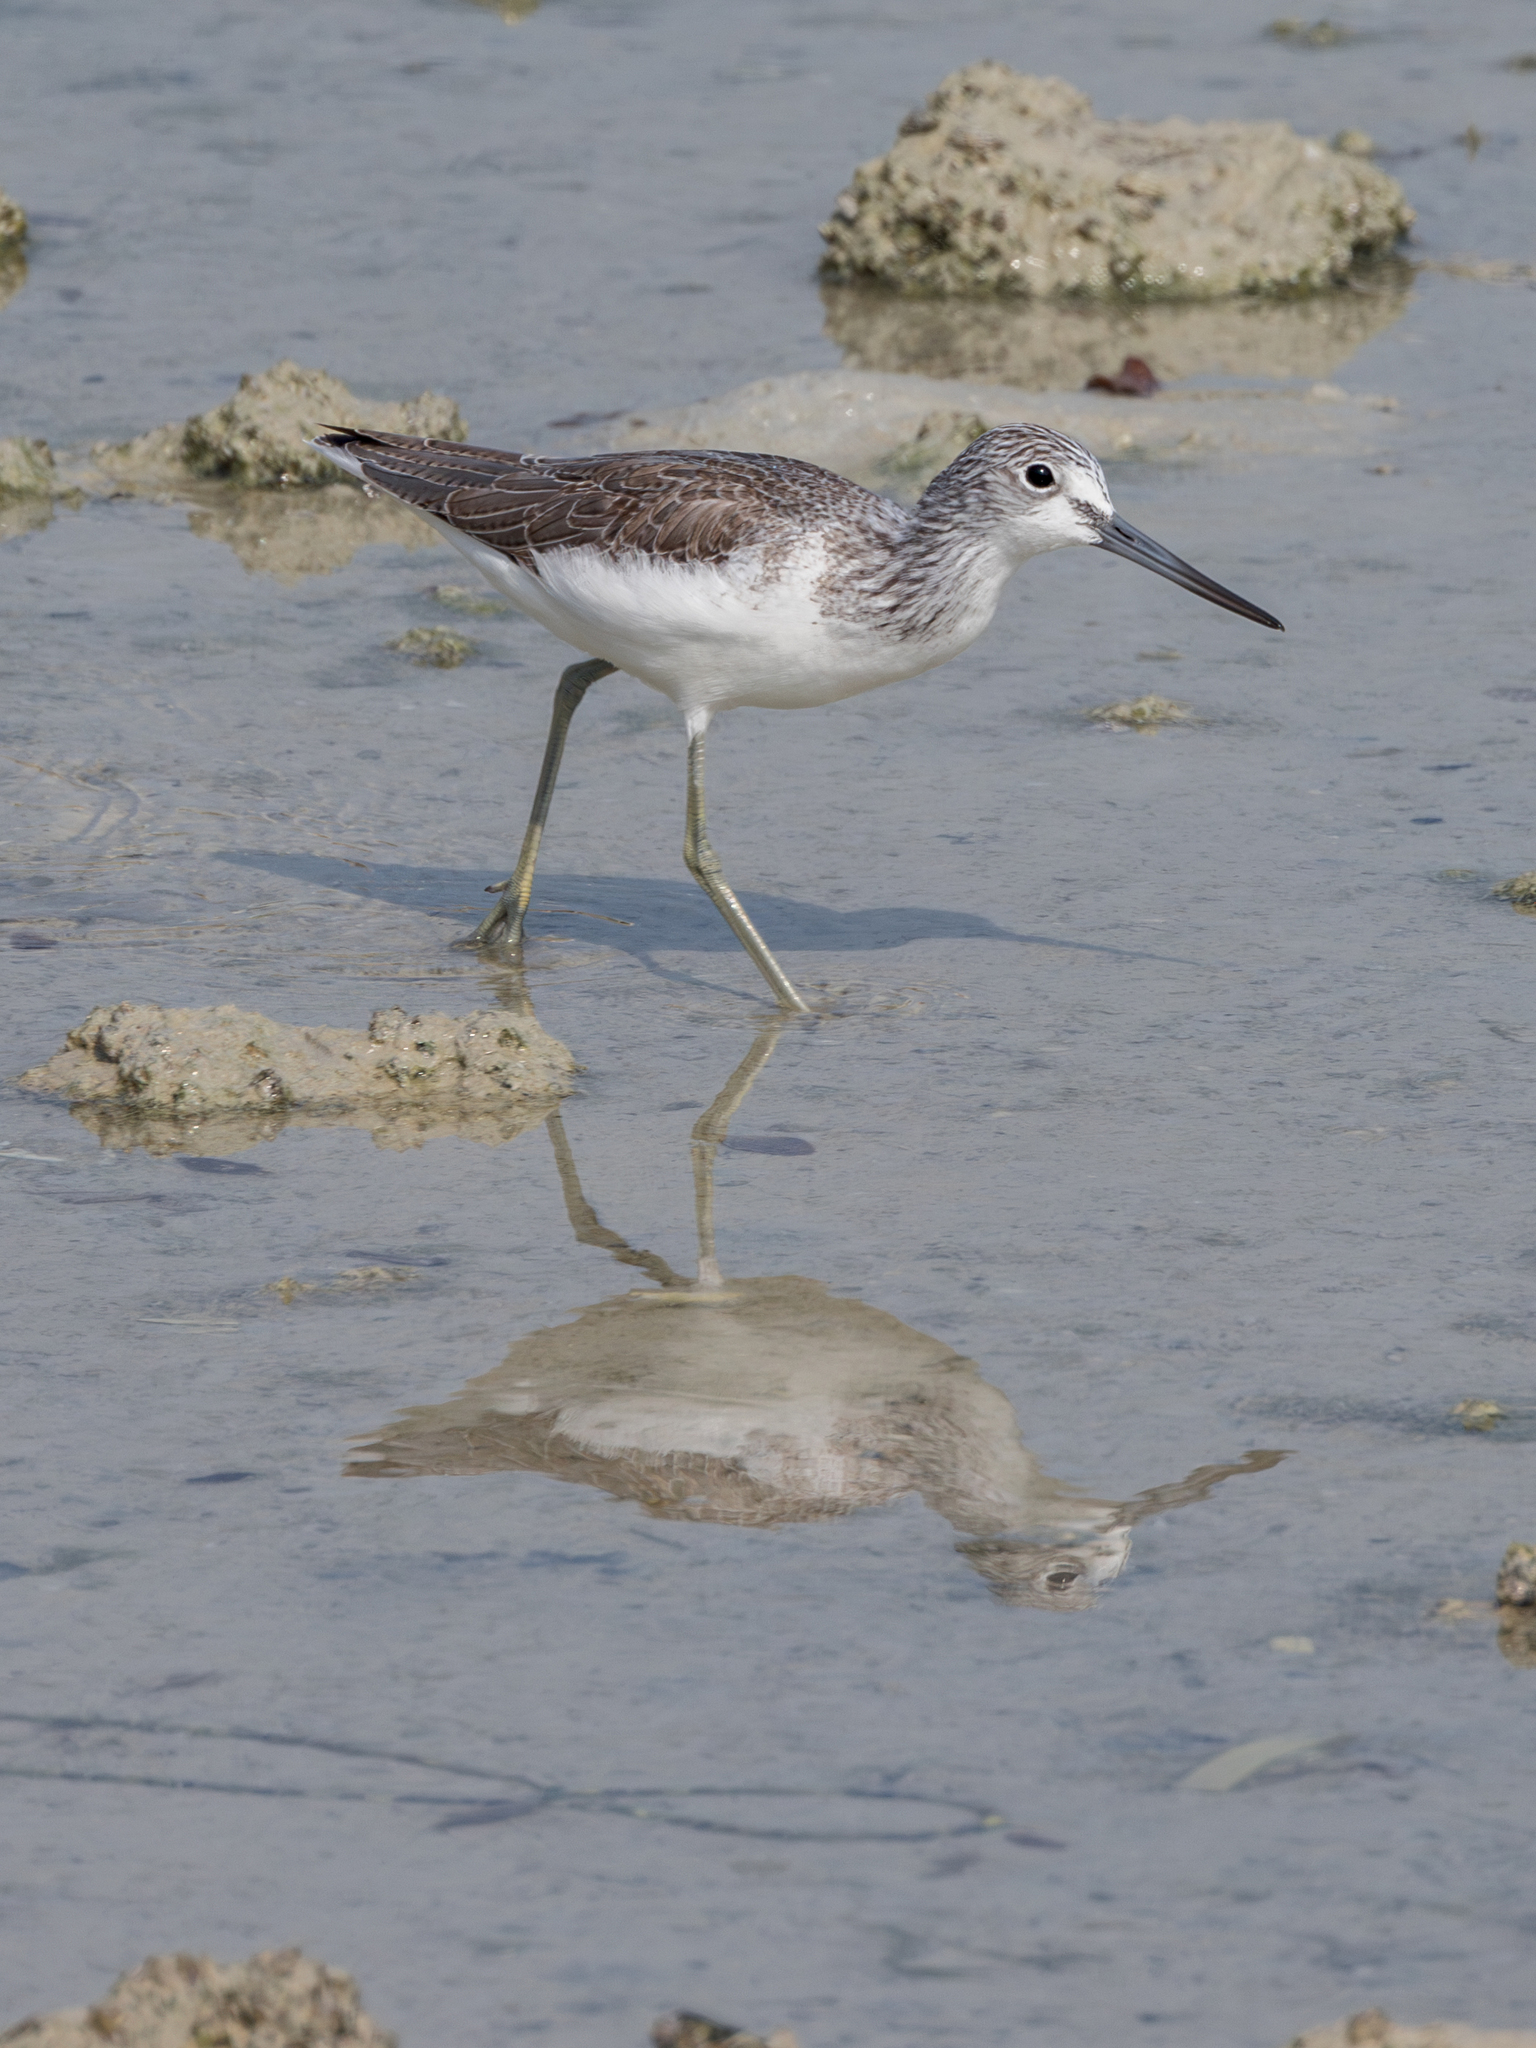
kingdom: Animalia
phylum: Chordata
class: Aves
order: Charadriiformes
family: Scolopacidae
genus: Tringa
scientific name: Tringa nebularia
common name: Common greenshank
